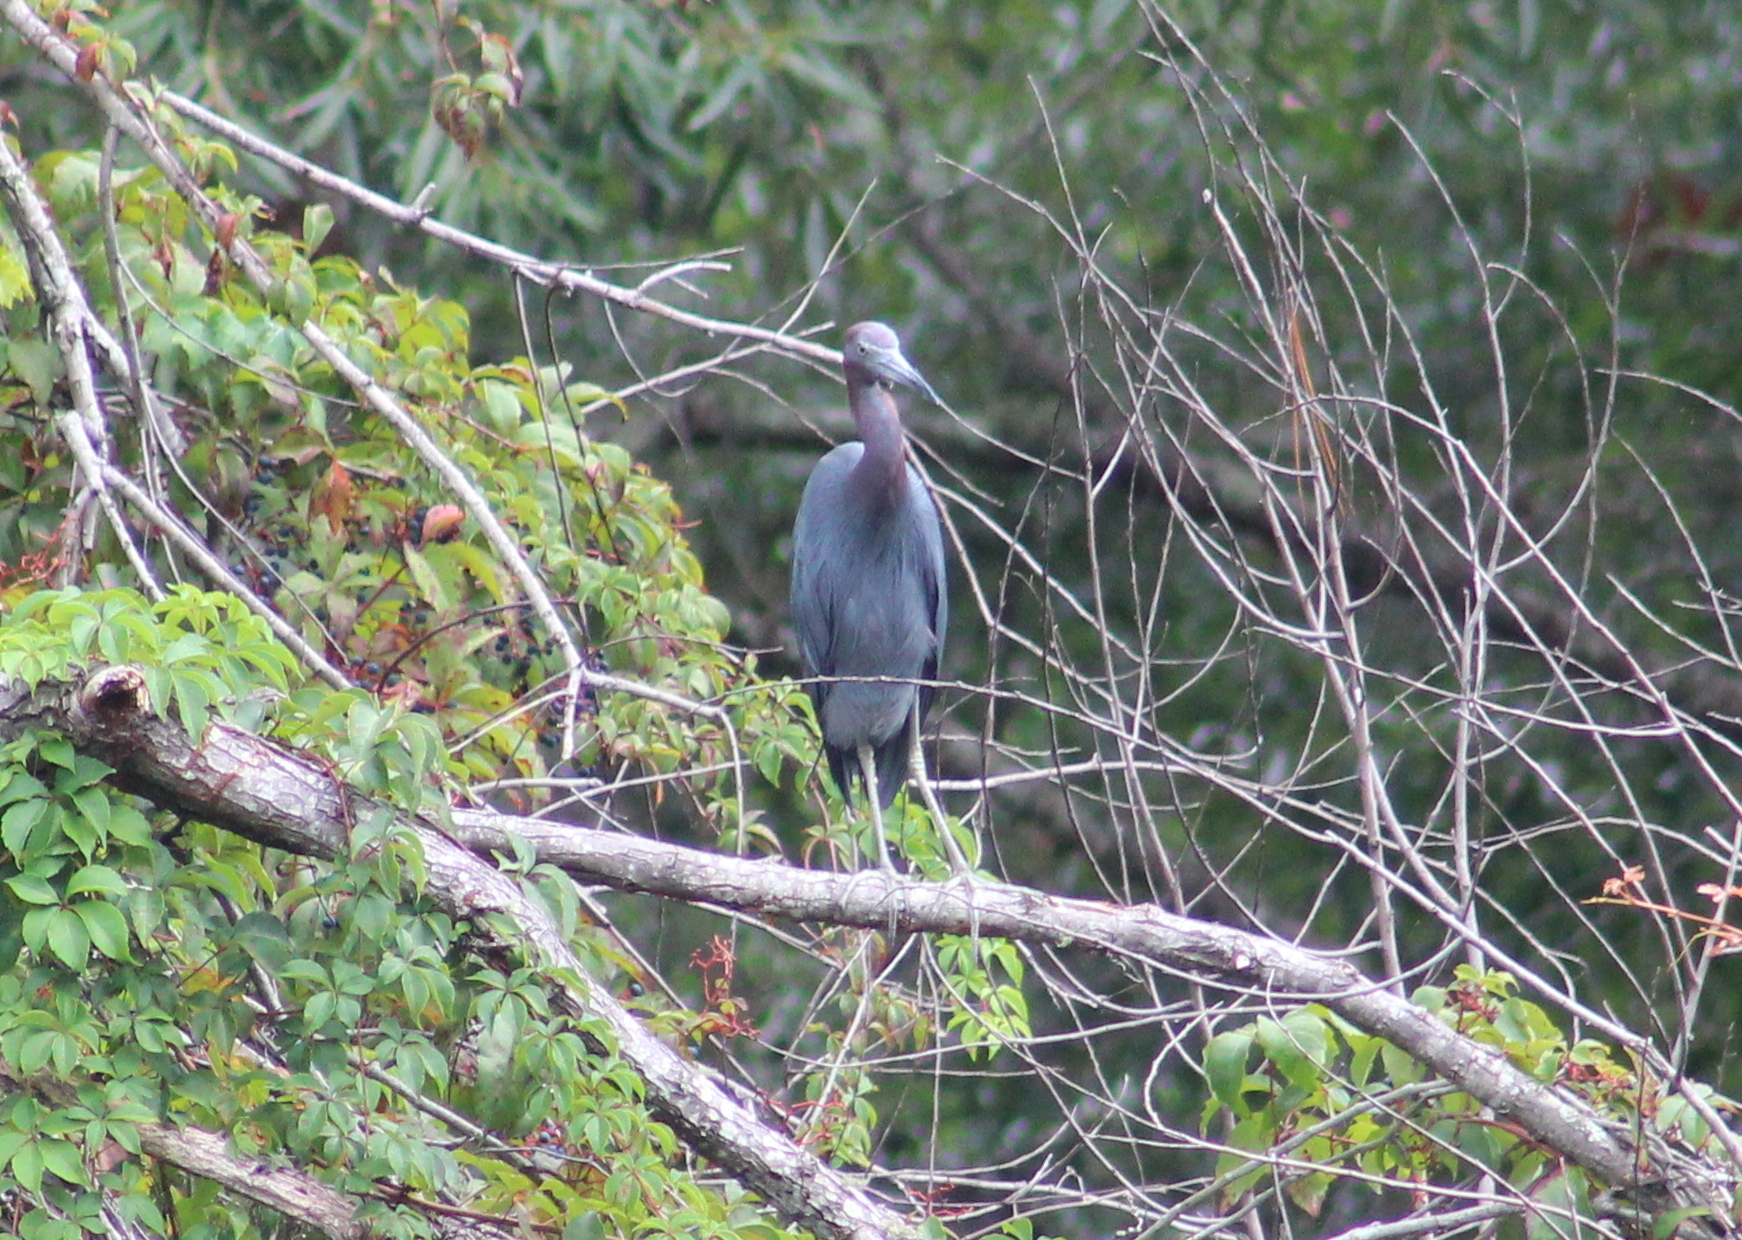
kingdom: Animalia
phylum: Chordata
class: Aves
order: Pelecaniformes
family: Ardeidae
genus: Egretta
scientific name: Egretta caerulea
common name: Little blue heron
